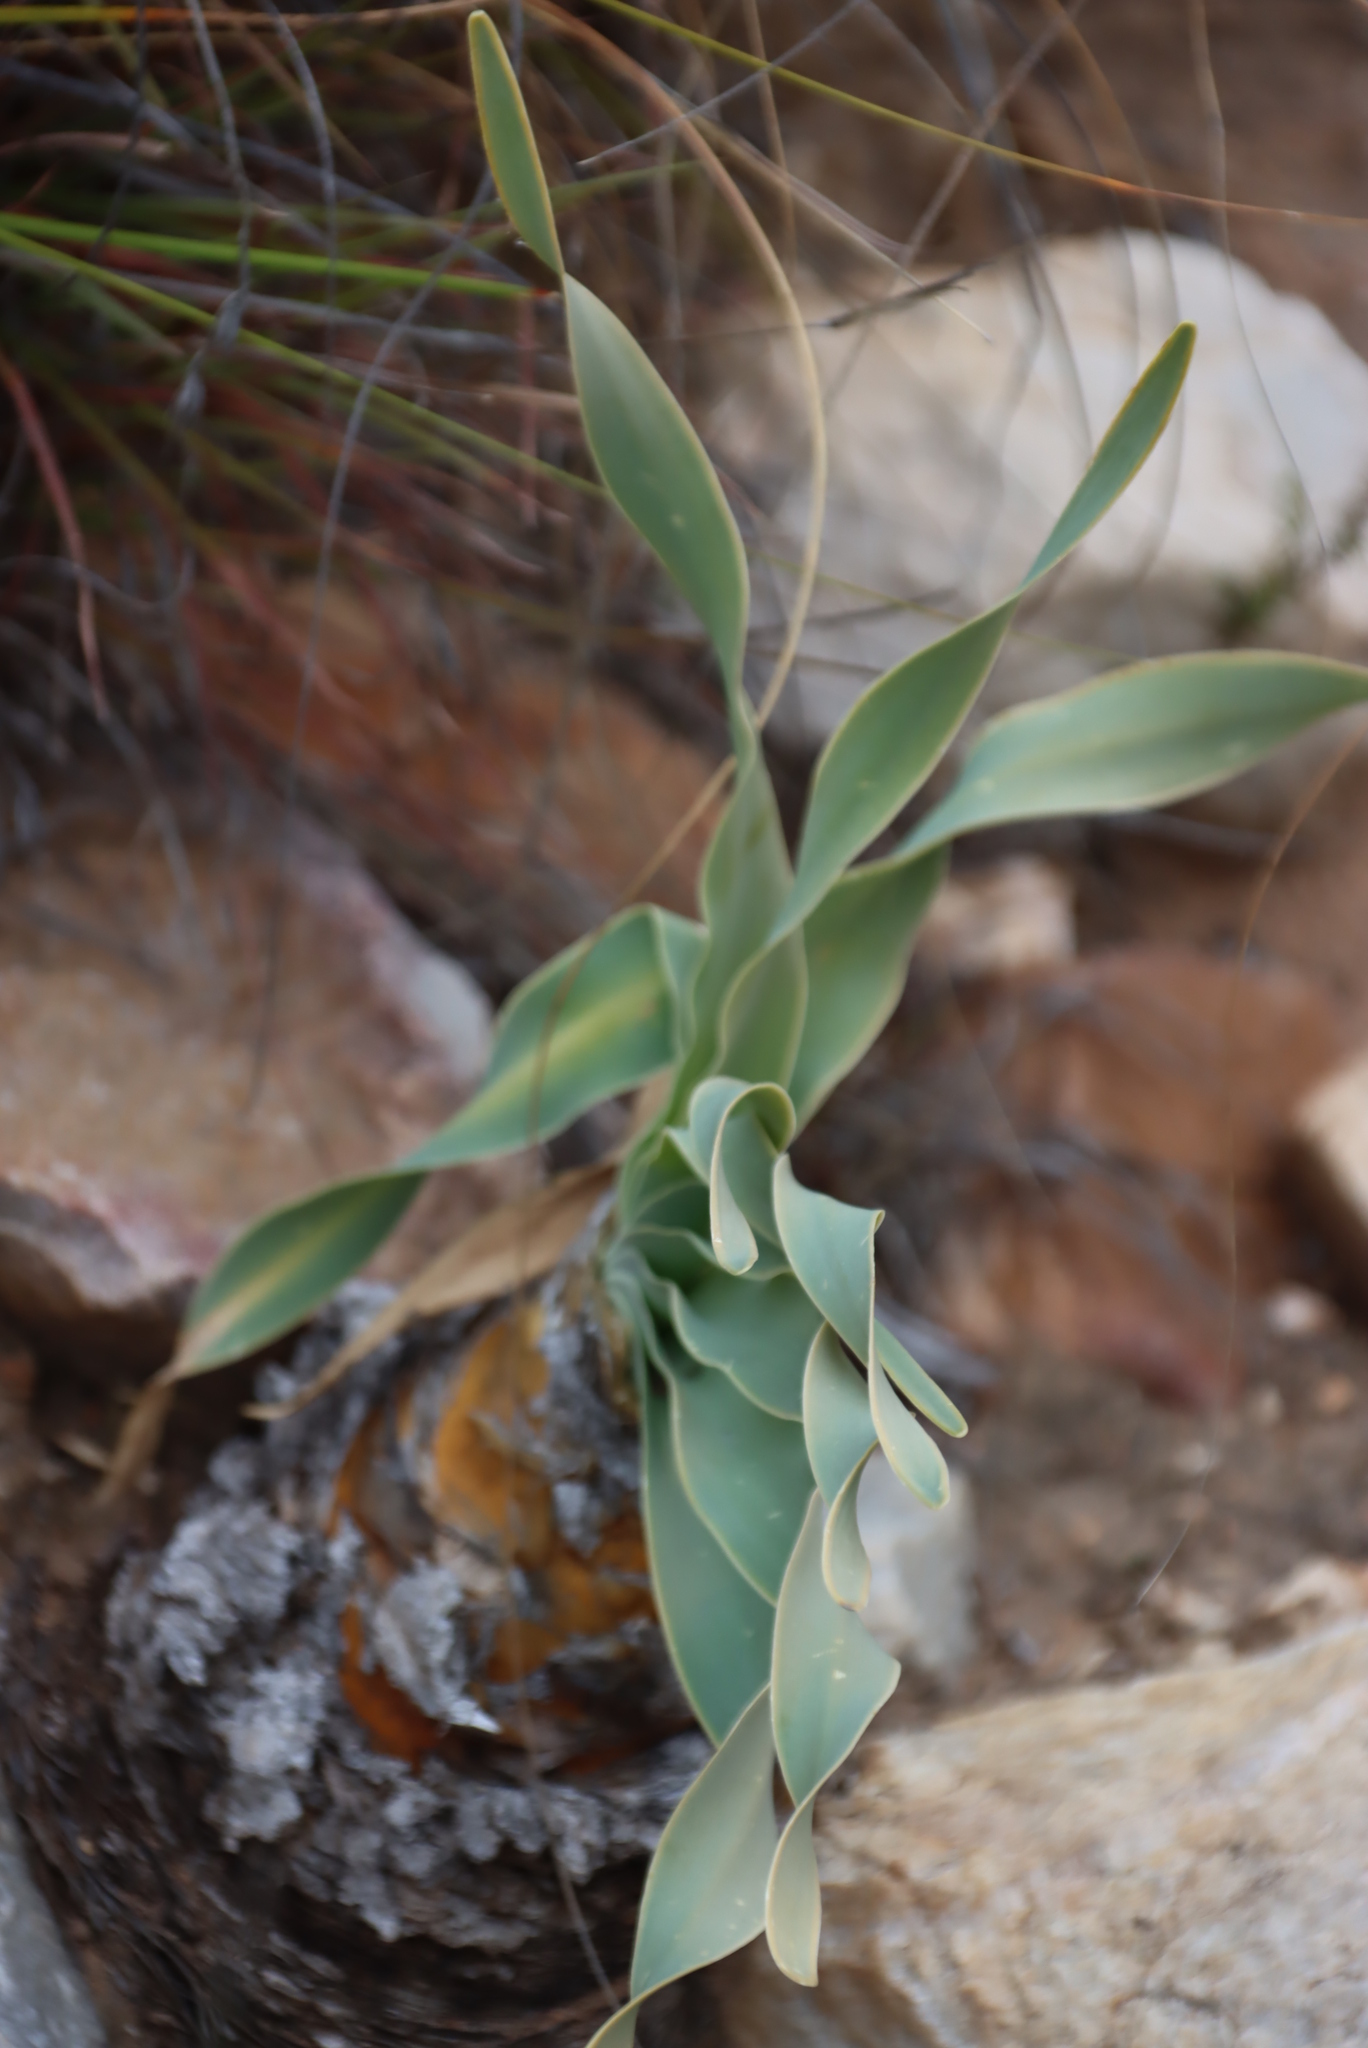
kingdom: Plantae
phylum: Tracheophyta
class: Liliopsida
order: Asparagales
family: Amaryllidaceae
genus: Boophone
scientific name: Boophone disticha
